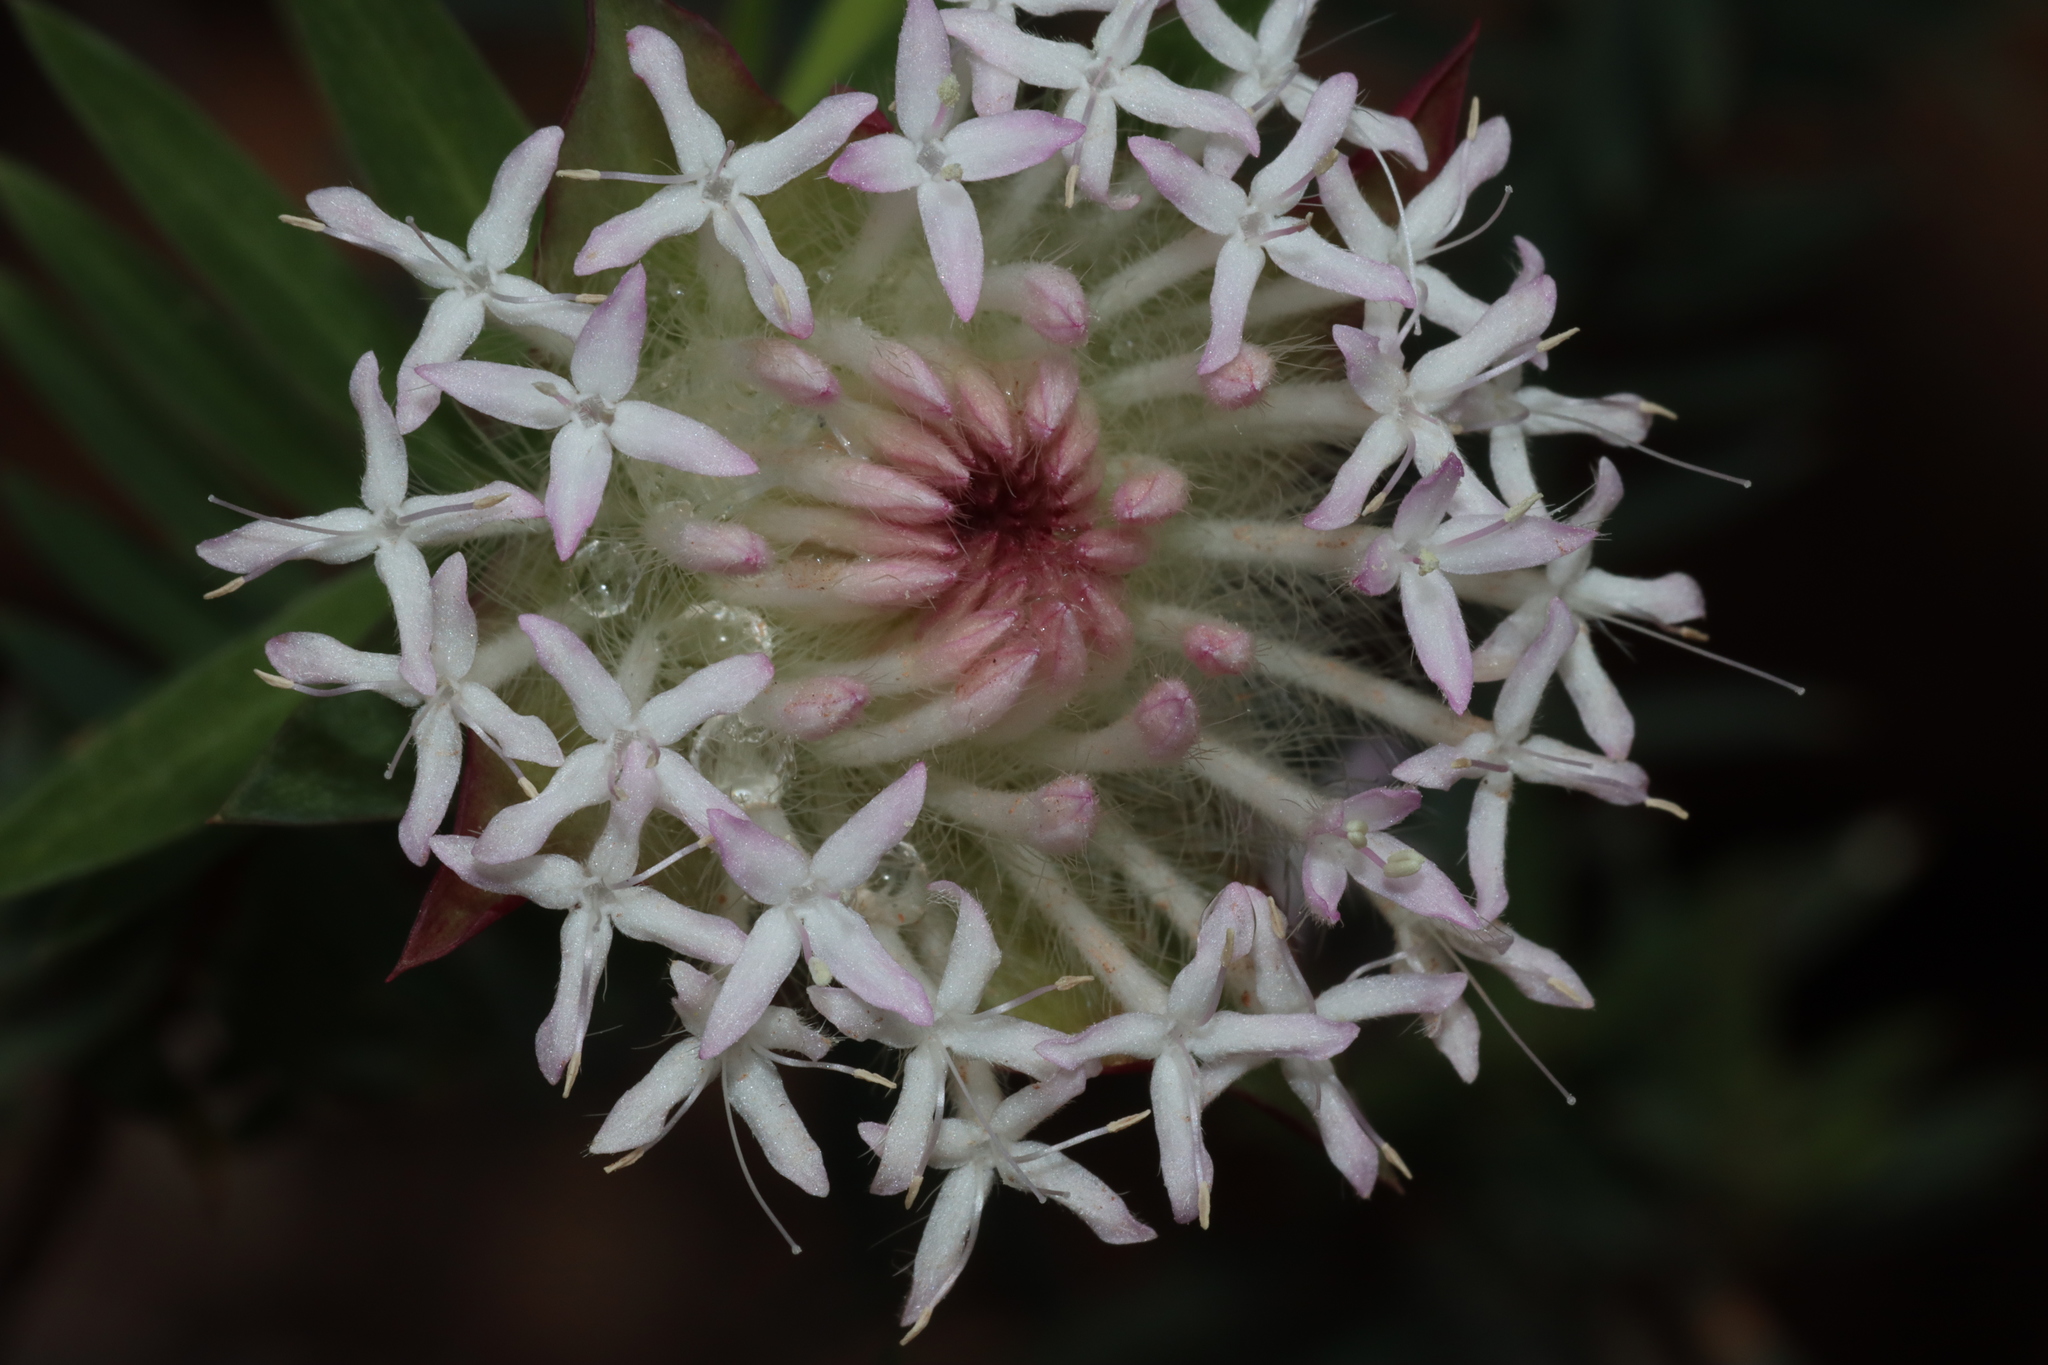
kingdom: Plantae
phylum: Tracheophyta
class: Magnoliopsida
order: Malvales
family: Thymelaeaceae
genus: Pimelea
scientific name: Pimelea spectabilis
